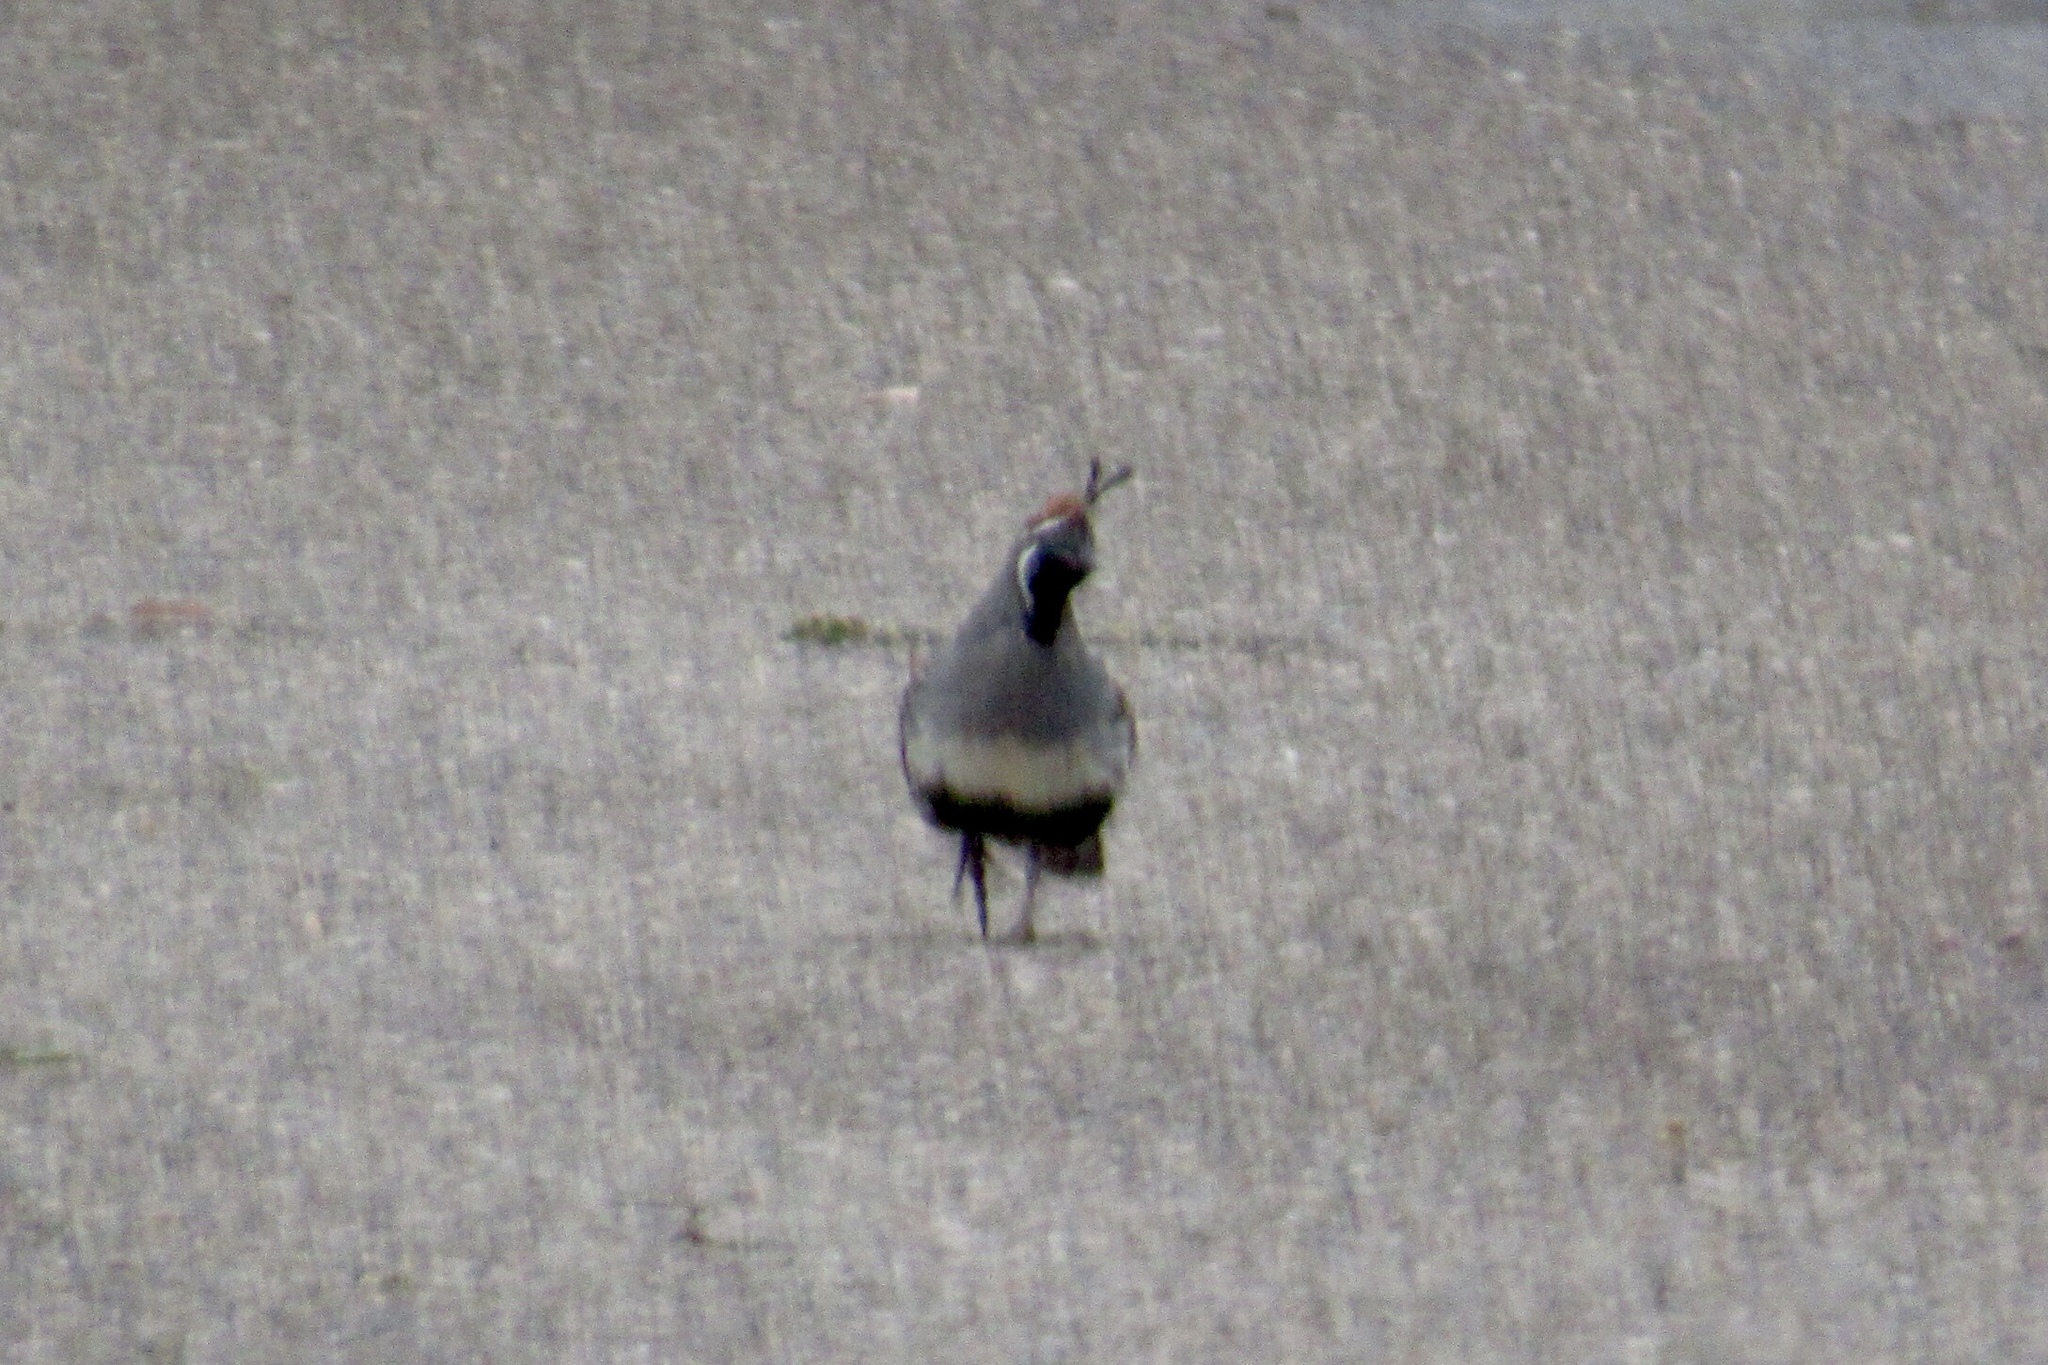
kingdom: Animalia
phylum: Chordata
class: Aves
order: Galliformes
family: Odontophoridae
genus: Callipepla
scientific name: Callipepla gambelii
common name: Gambel's quail
